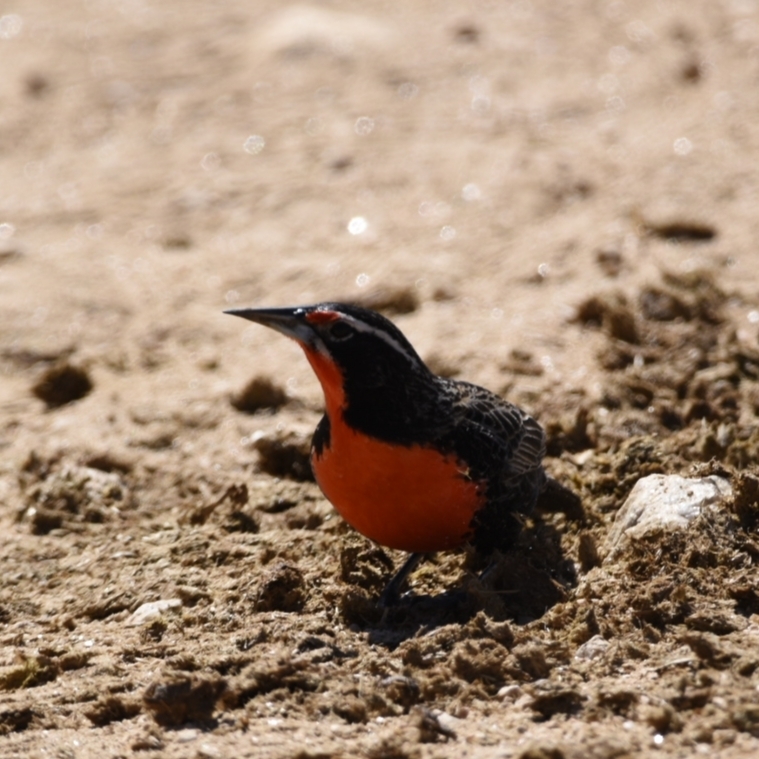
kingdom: Animalia
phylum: Chordata
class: Aves
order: Passeriformes
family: Icteridae
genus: Sturnella
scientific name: Sturnella loyca
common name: Long-tailed meadowlark
